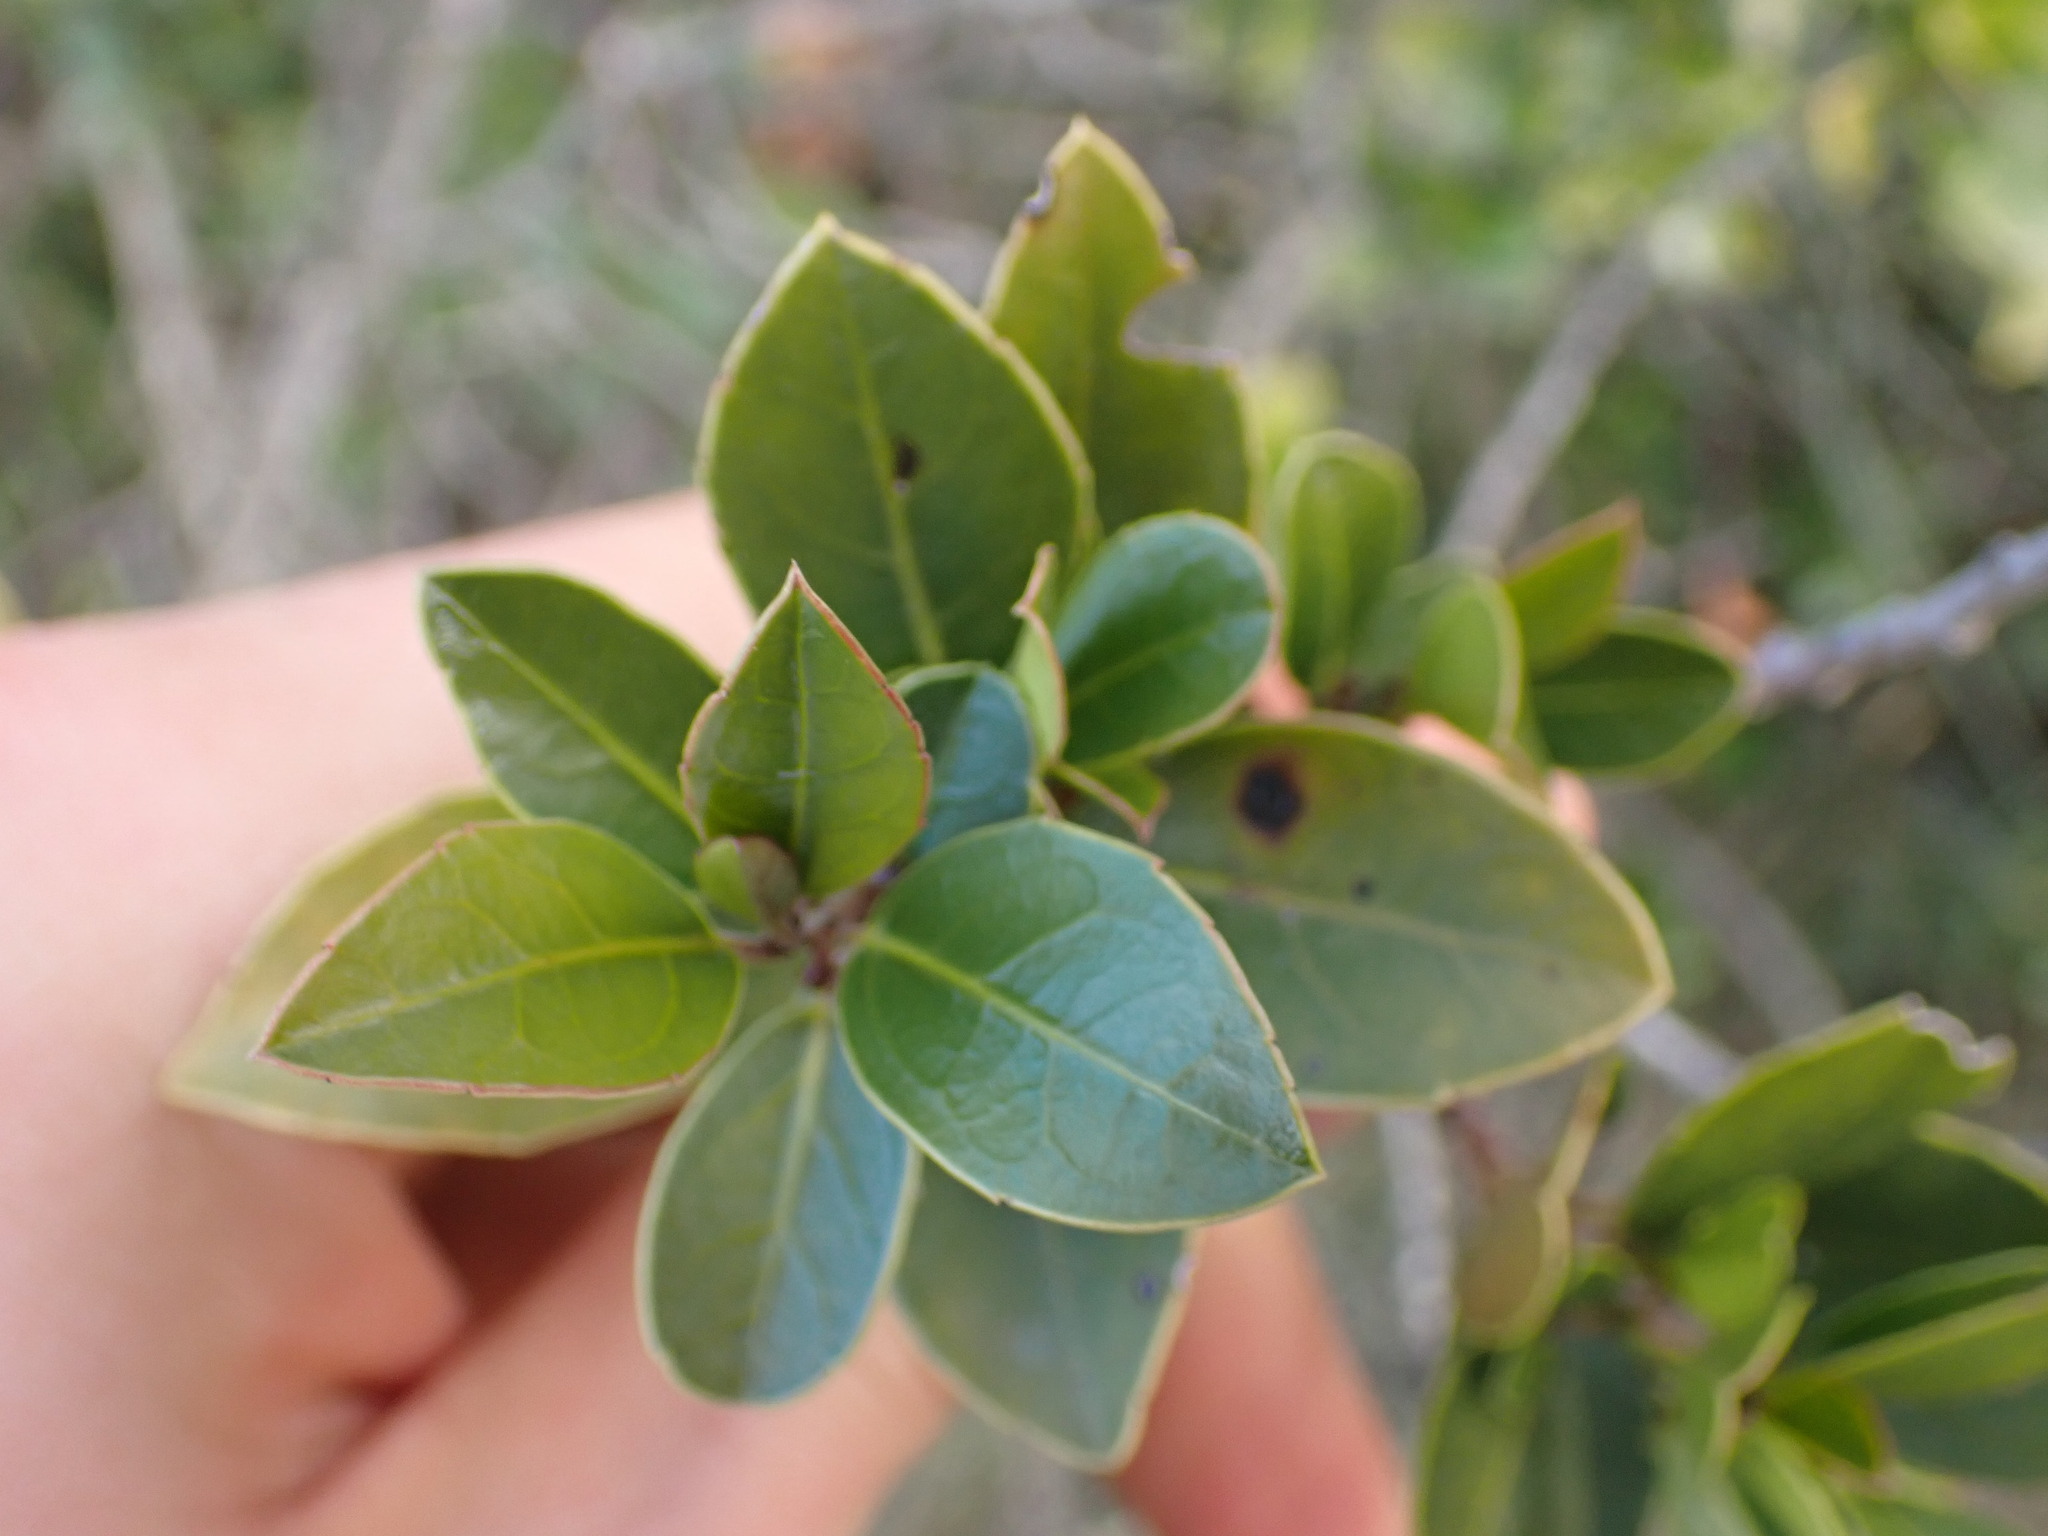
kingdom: Plantae
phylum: Tracheophyta
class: Magnoliopsida
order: Rosales
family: Rhamnaceae
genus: Rhamnus
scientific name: Rhamnus alaternus
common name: Mediterranean buckthorn
